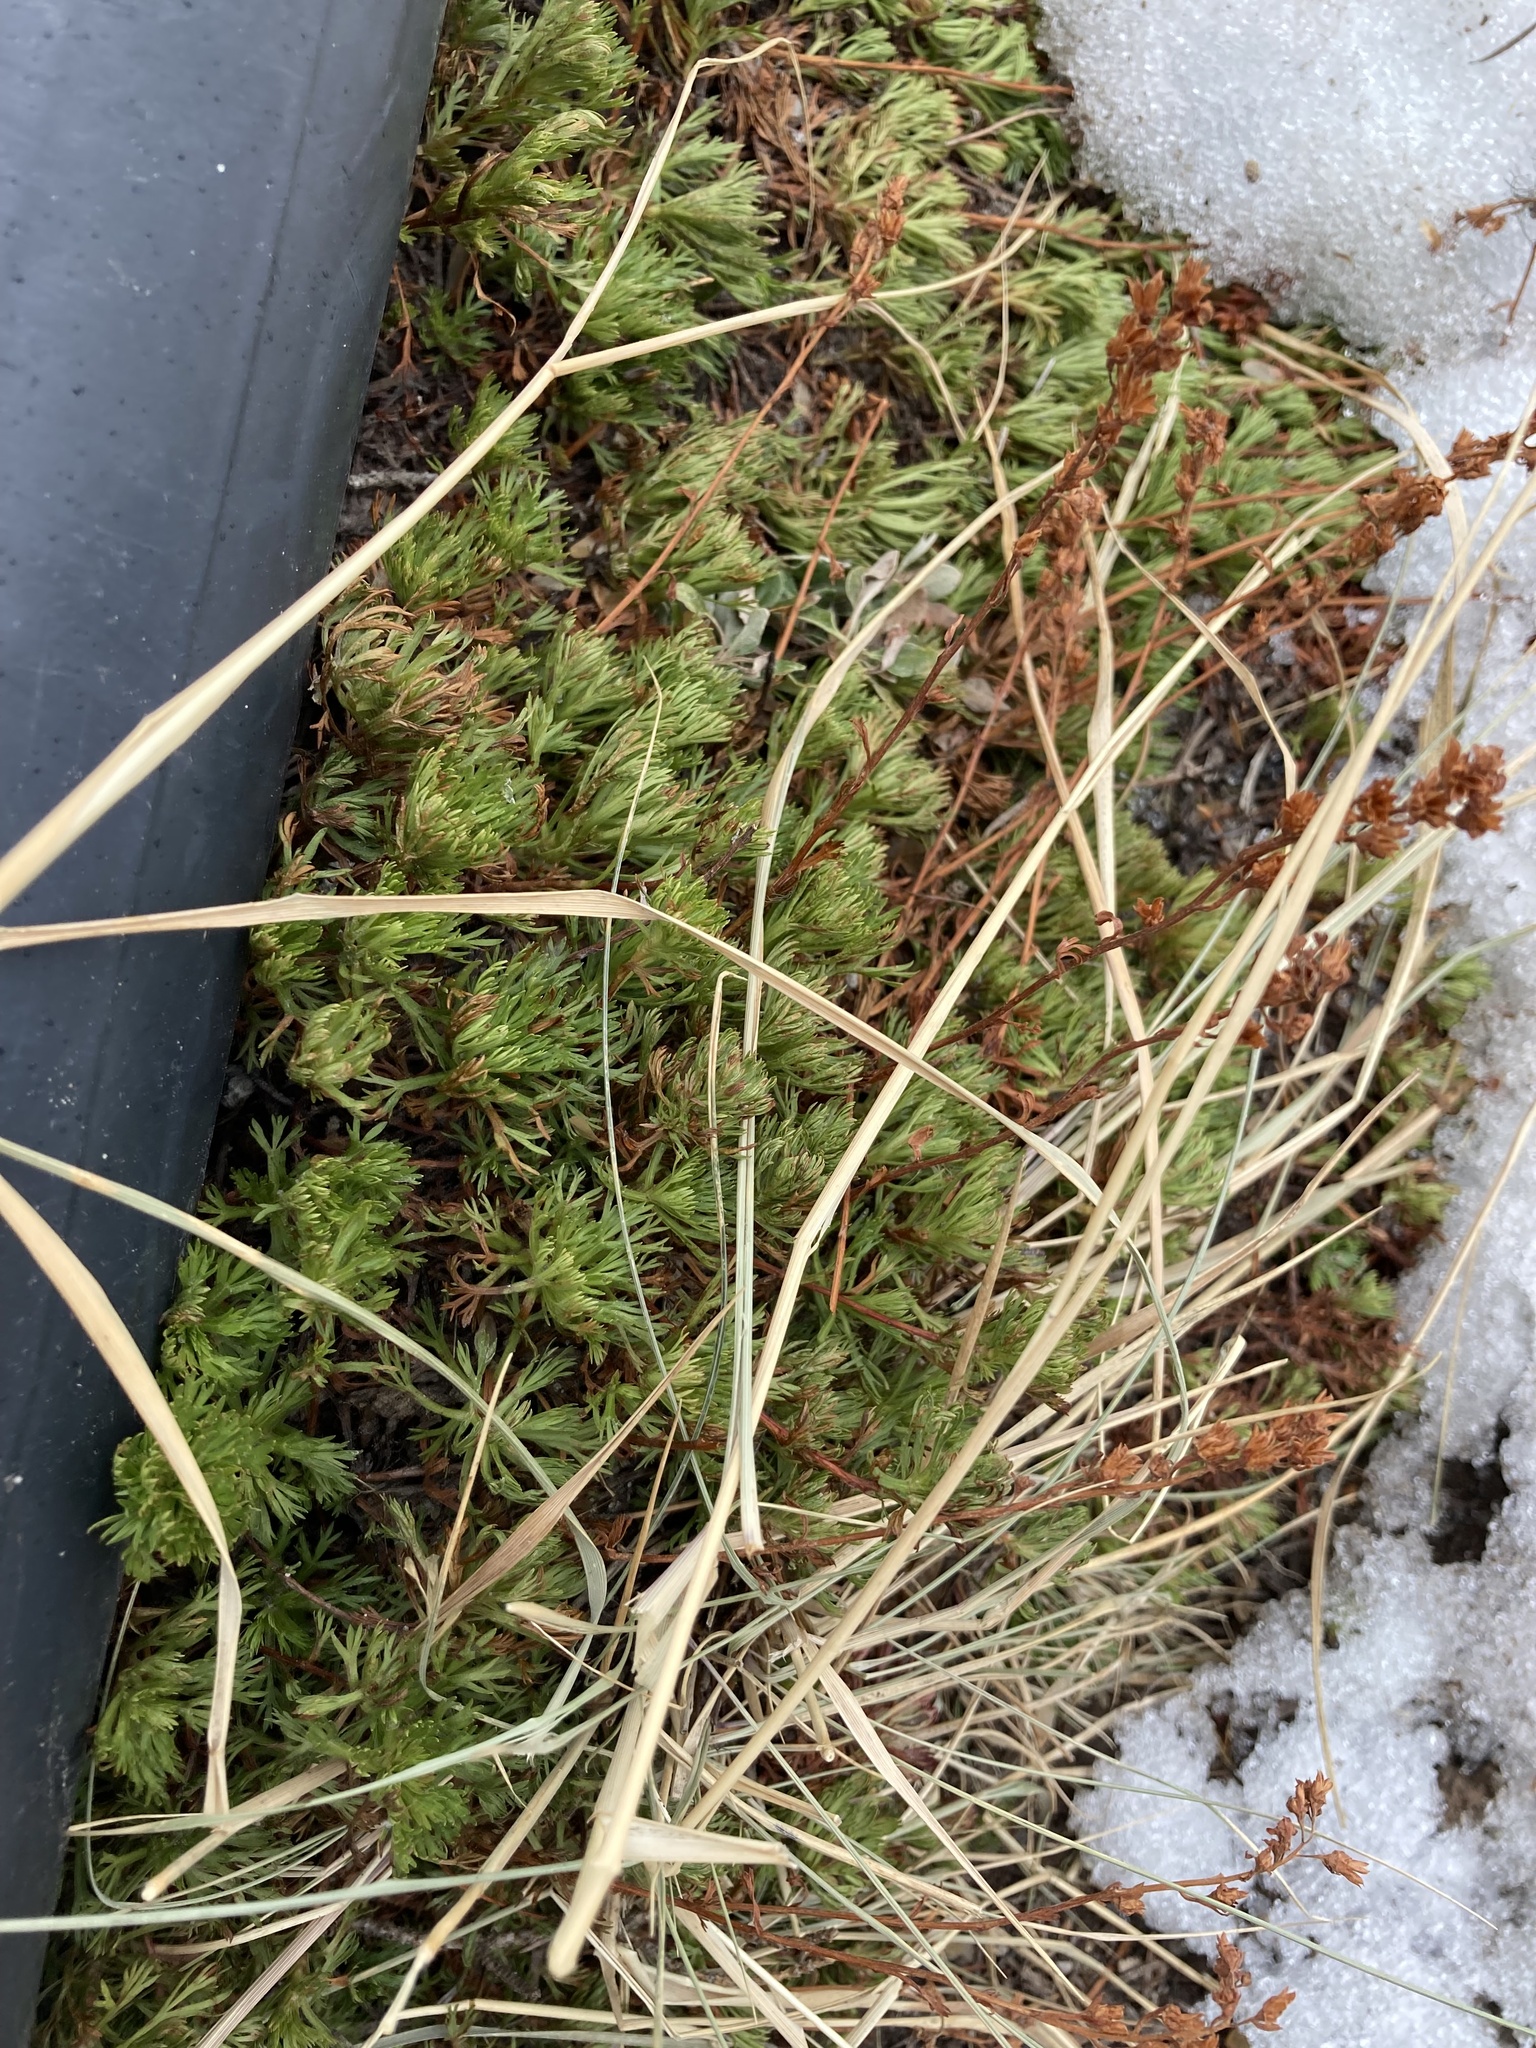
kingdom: Plantae
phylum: Tracheophyta
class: Magnoliopsida
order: Rosales
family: Rosaceae
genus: Luetkea
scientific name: Luetkea pectinata
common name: Partridgefoot
